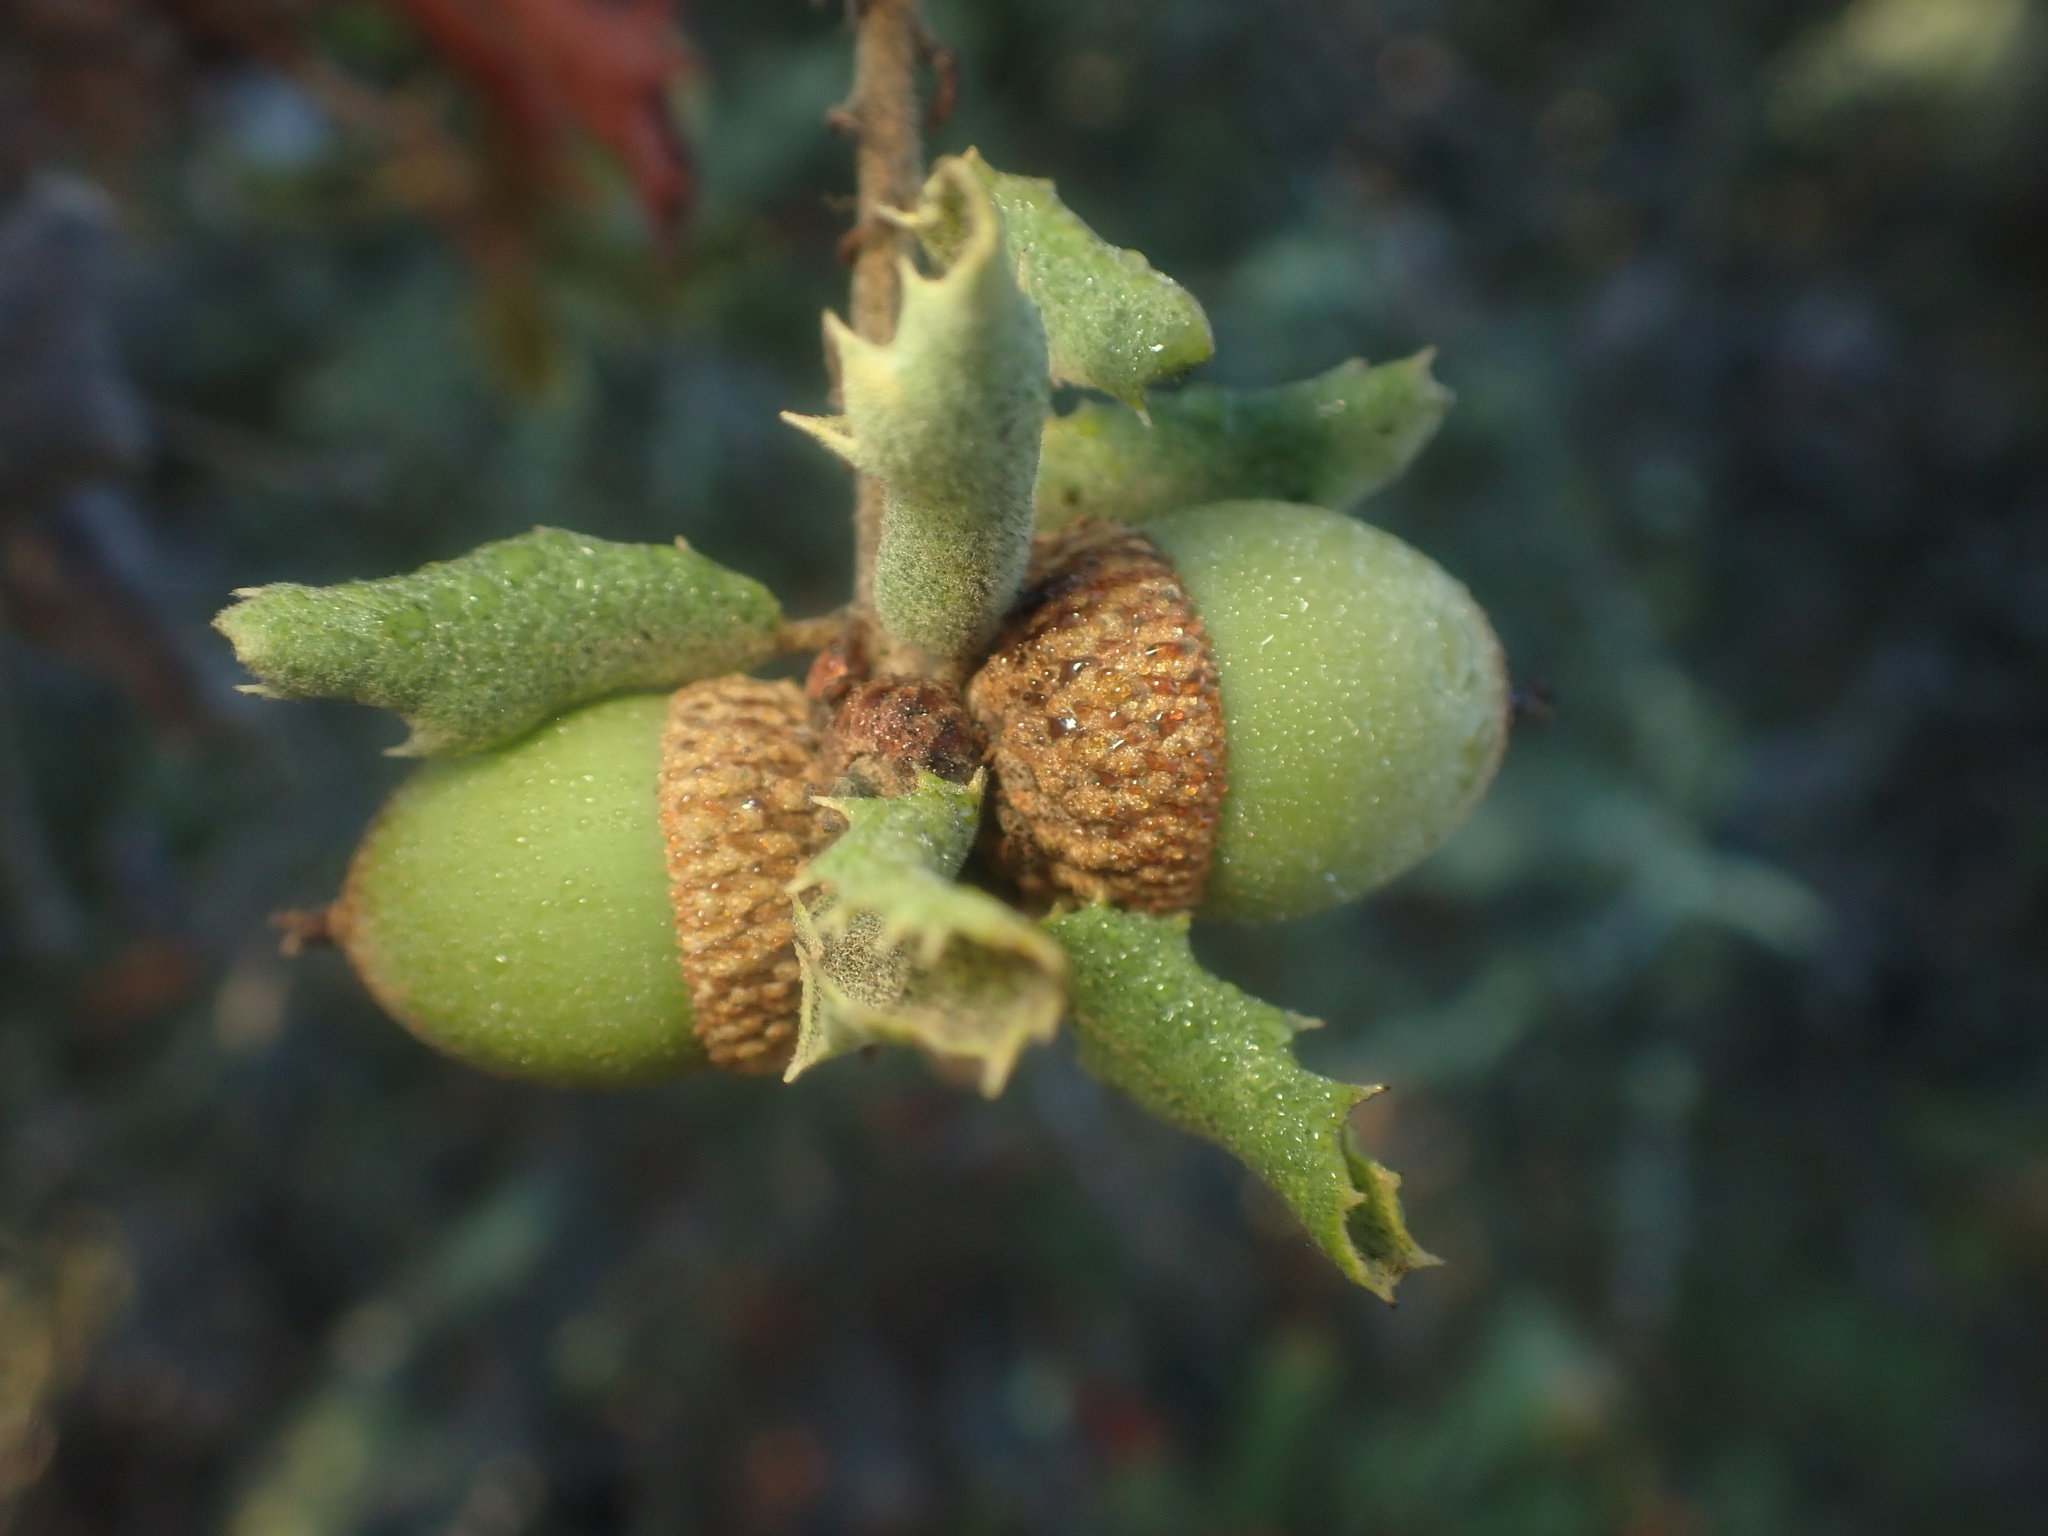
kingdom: Animalia
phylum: Arthropoda
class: Insecta
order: Hymenoptera
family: Cynipidae
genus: Burnettweldia
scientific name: Burnettweldia
